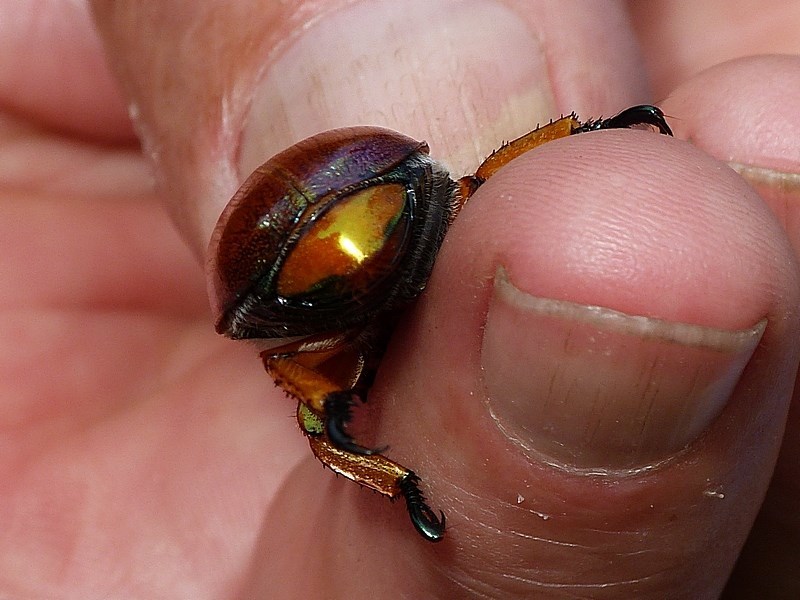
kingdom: Animalia
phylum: Arthropoda
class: Insecta
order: Coleoptera
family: Scarabaeidae
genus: Anoplognathus
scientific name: Anoplognathus viriditarsis
